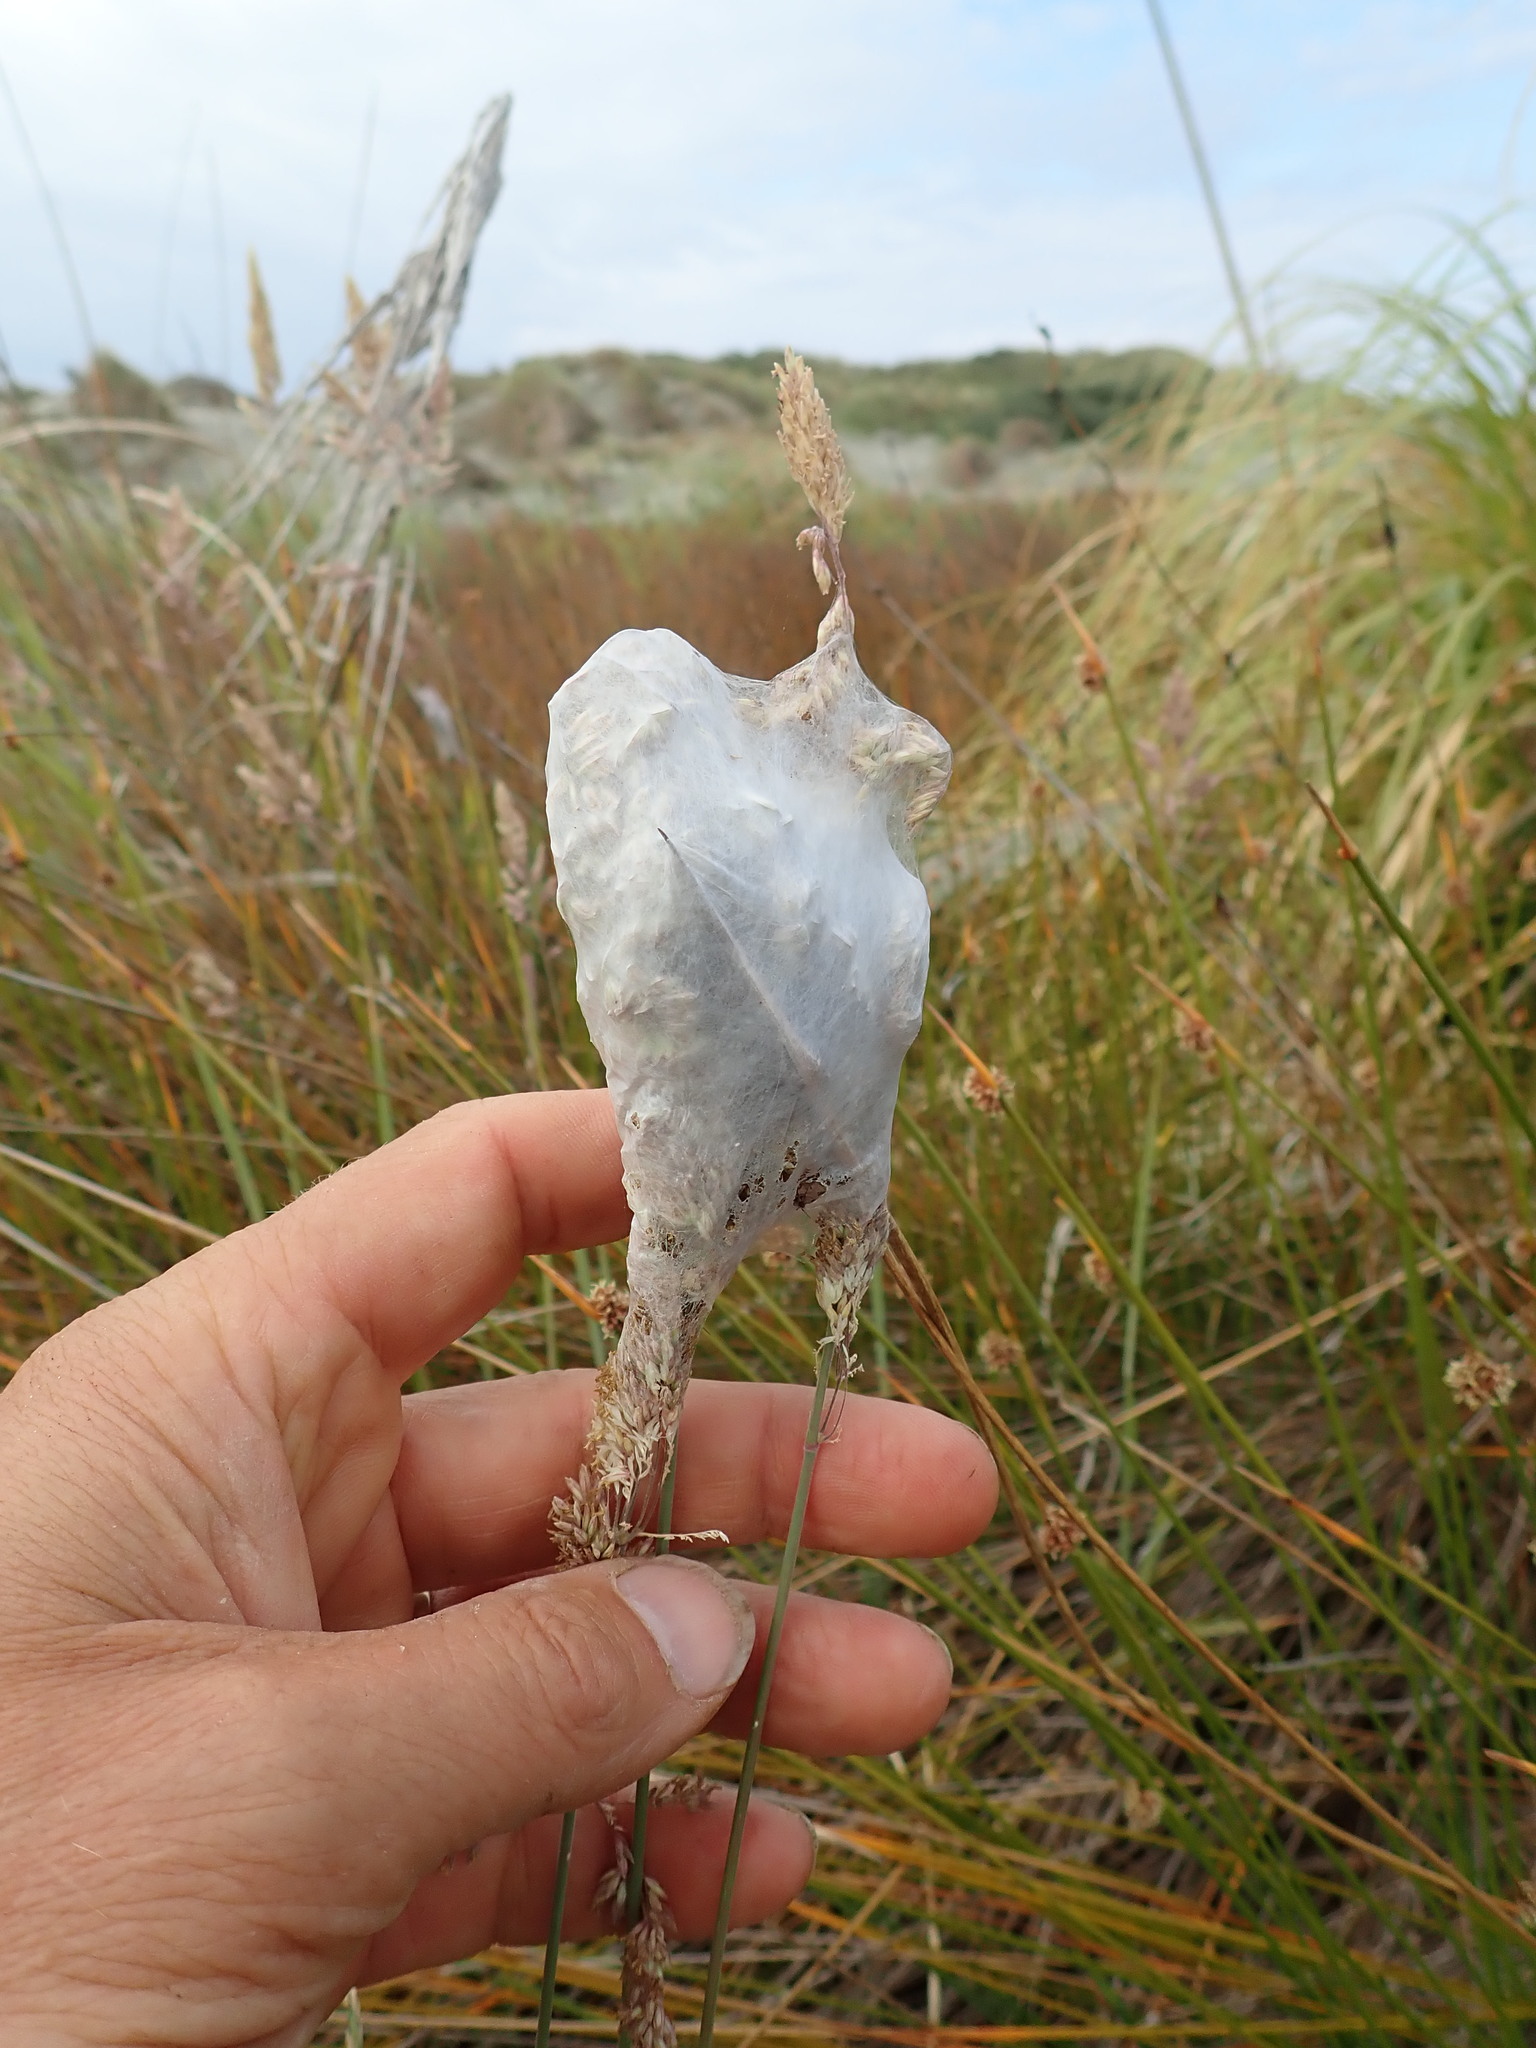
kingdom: Animalia
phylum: Arthropoda
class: Arachnida
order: Araneae
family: Pisauridae
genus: Dolomedes
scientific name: Dolomedes minor
